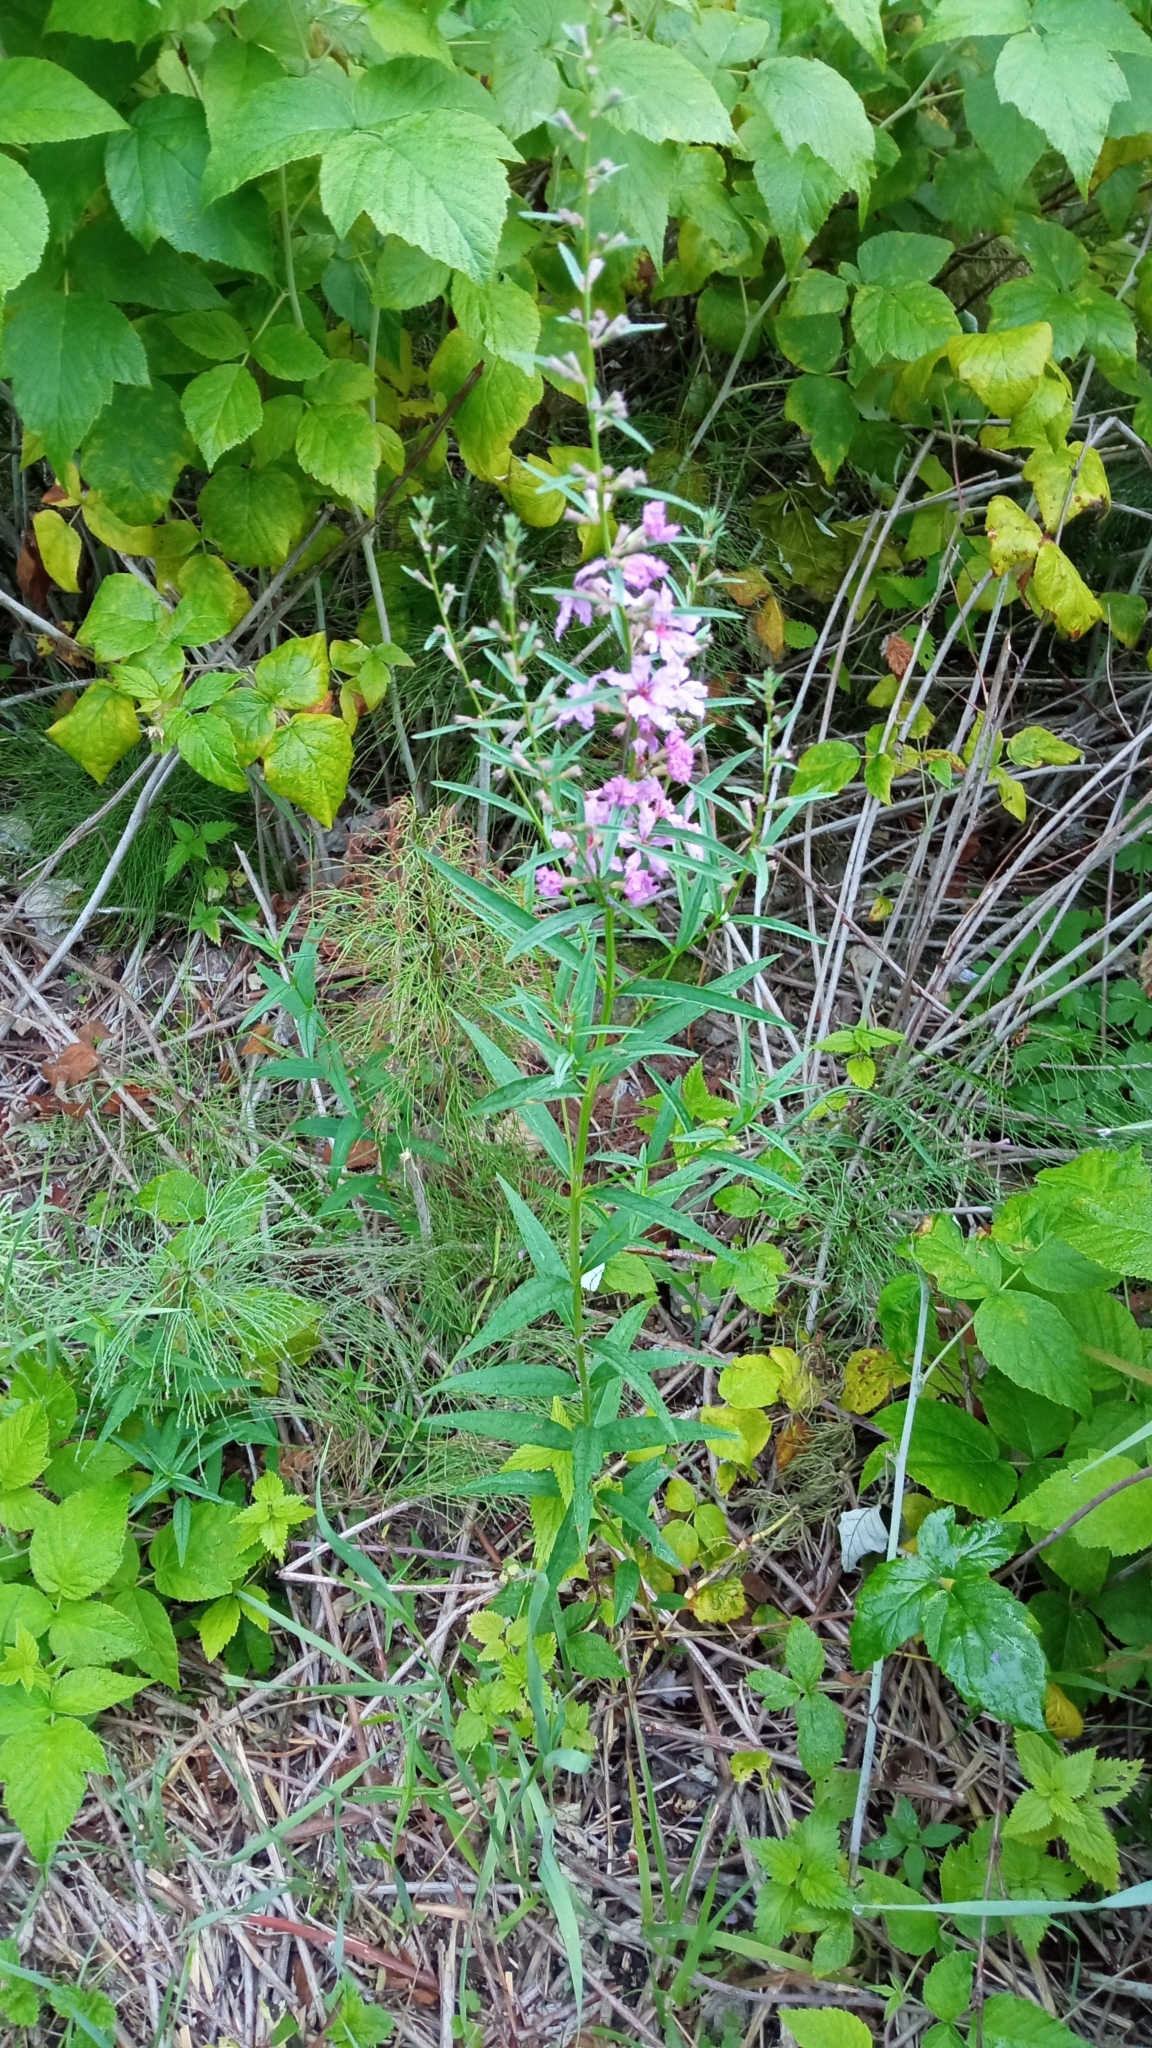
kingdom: Plantae
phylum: Tracheophyta
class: Magnoliopsida
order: Myrtales
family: Lythraceae
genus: Lythrum
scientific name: Lythrum virgatum
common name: European wand loosestrife
